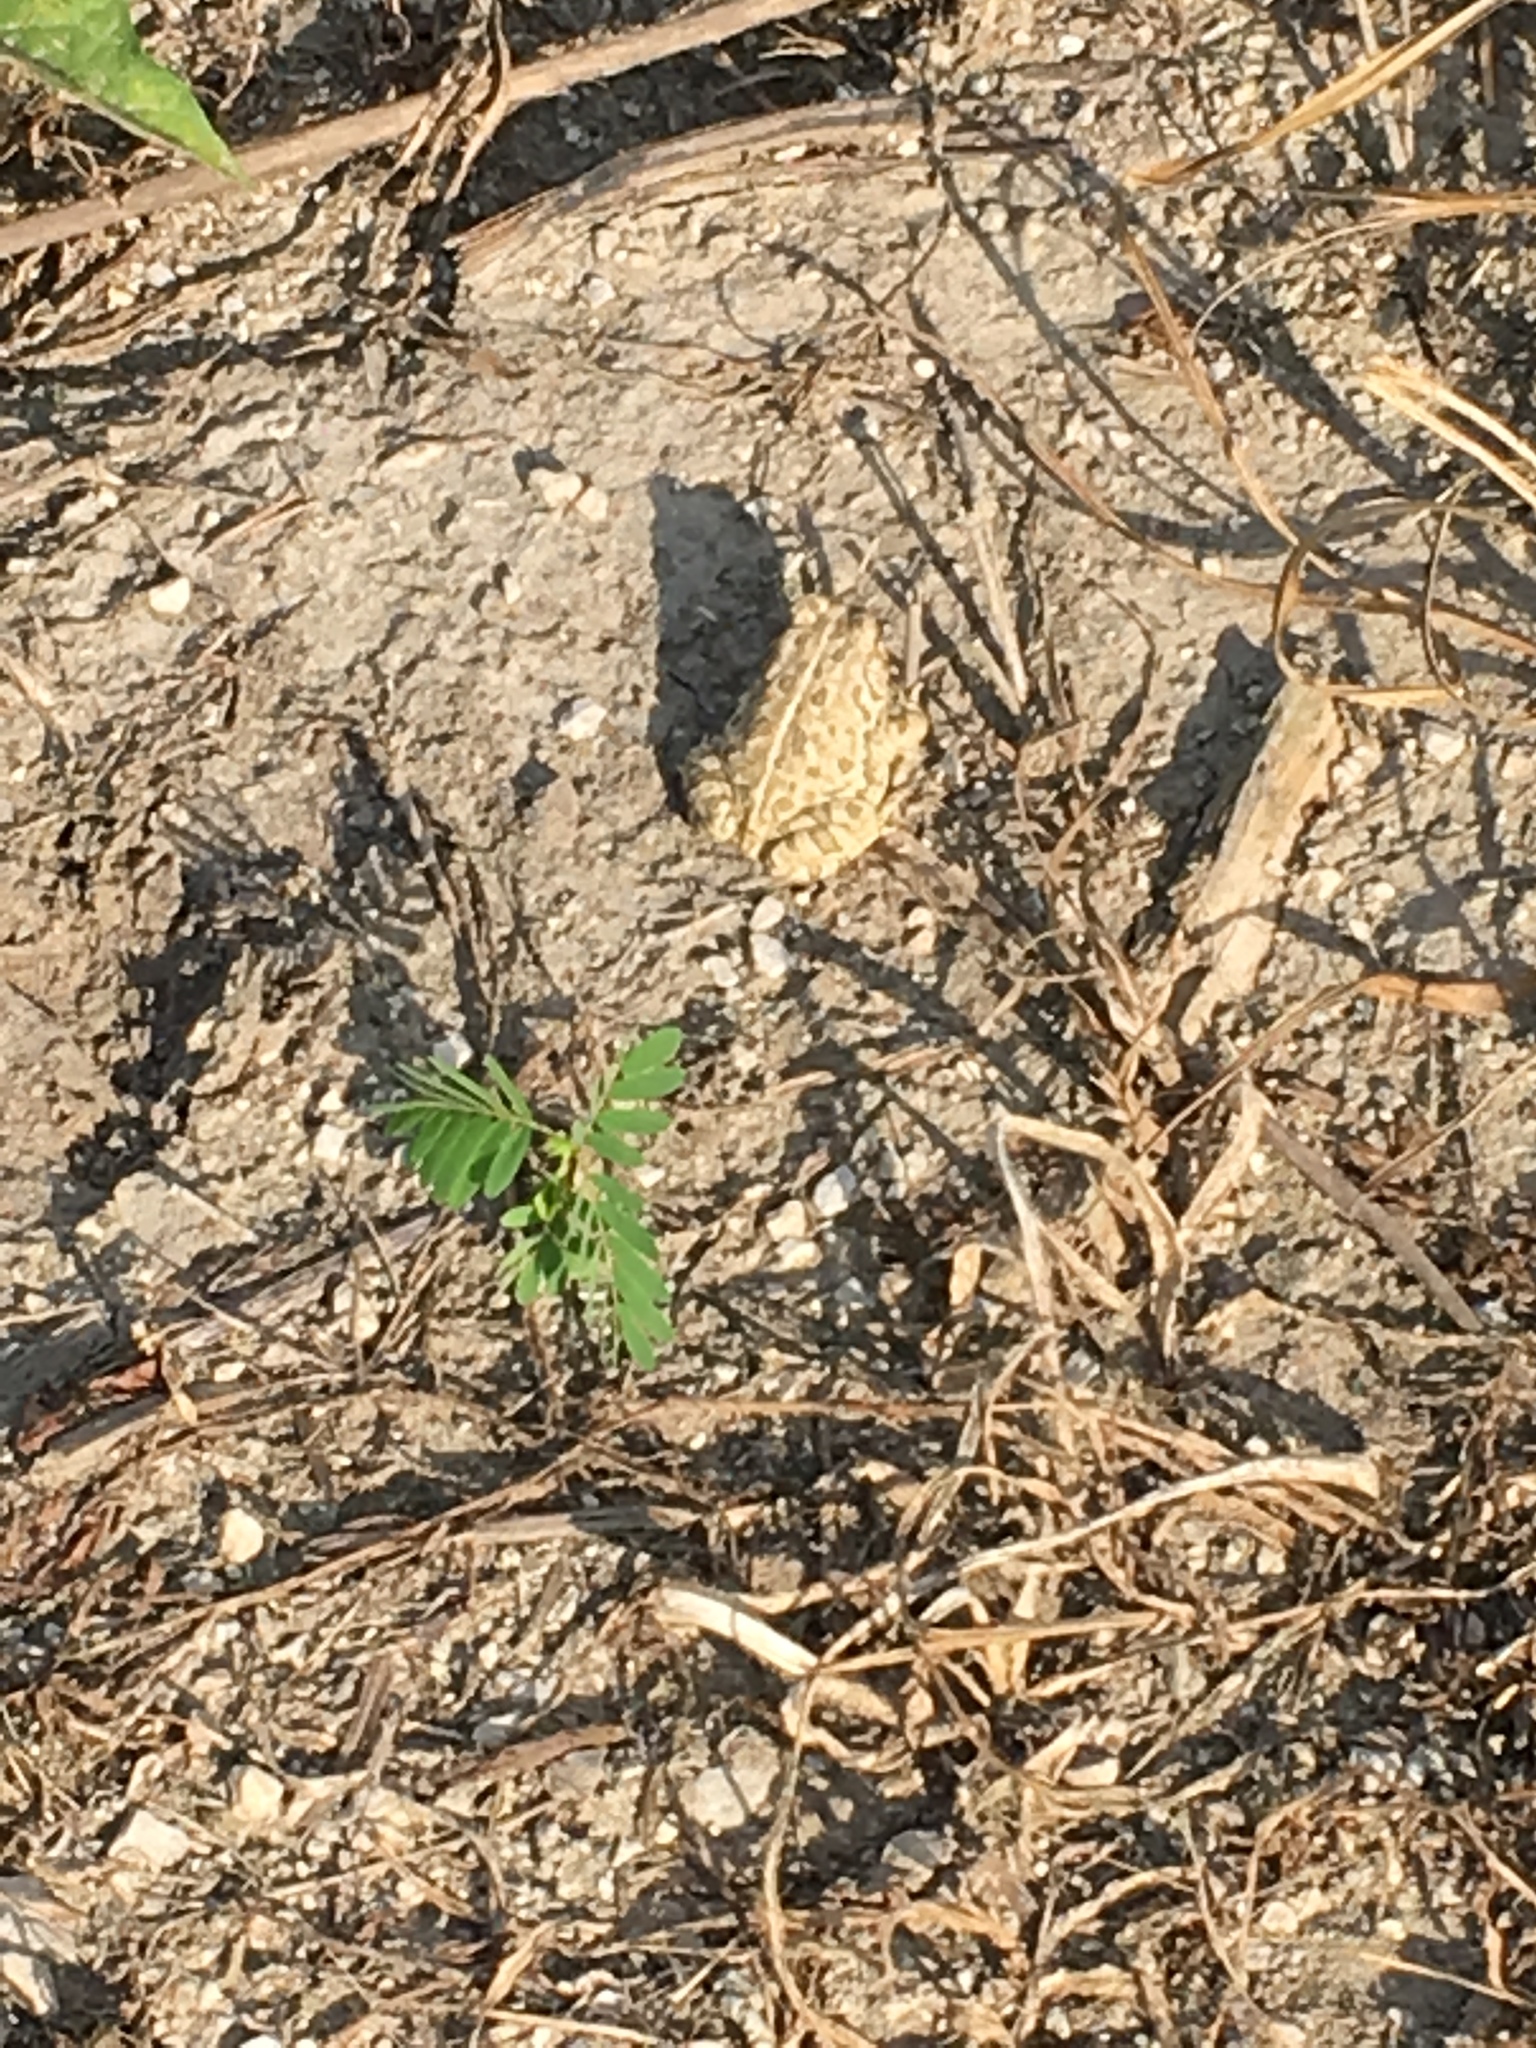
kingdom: Animalia
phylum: Chordata
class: Amphibia
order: Anura
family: Bufonidae
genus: Anaxyrus
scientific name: Anaxyrus fowleri
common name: Fowler's toad
